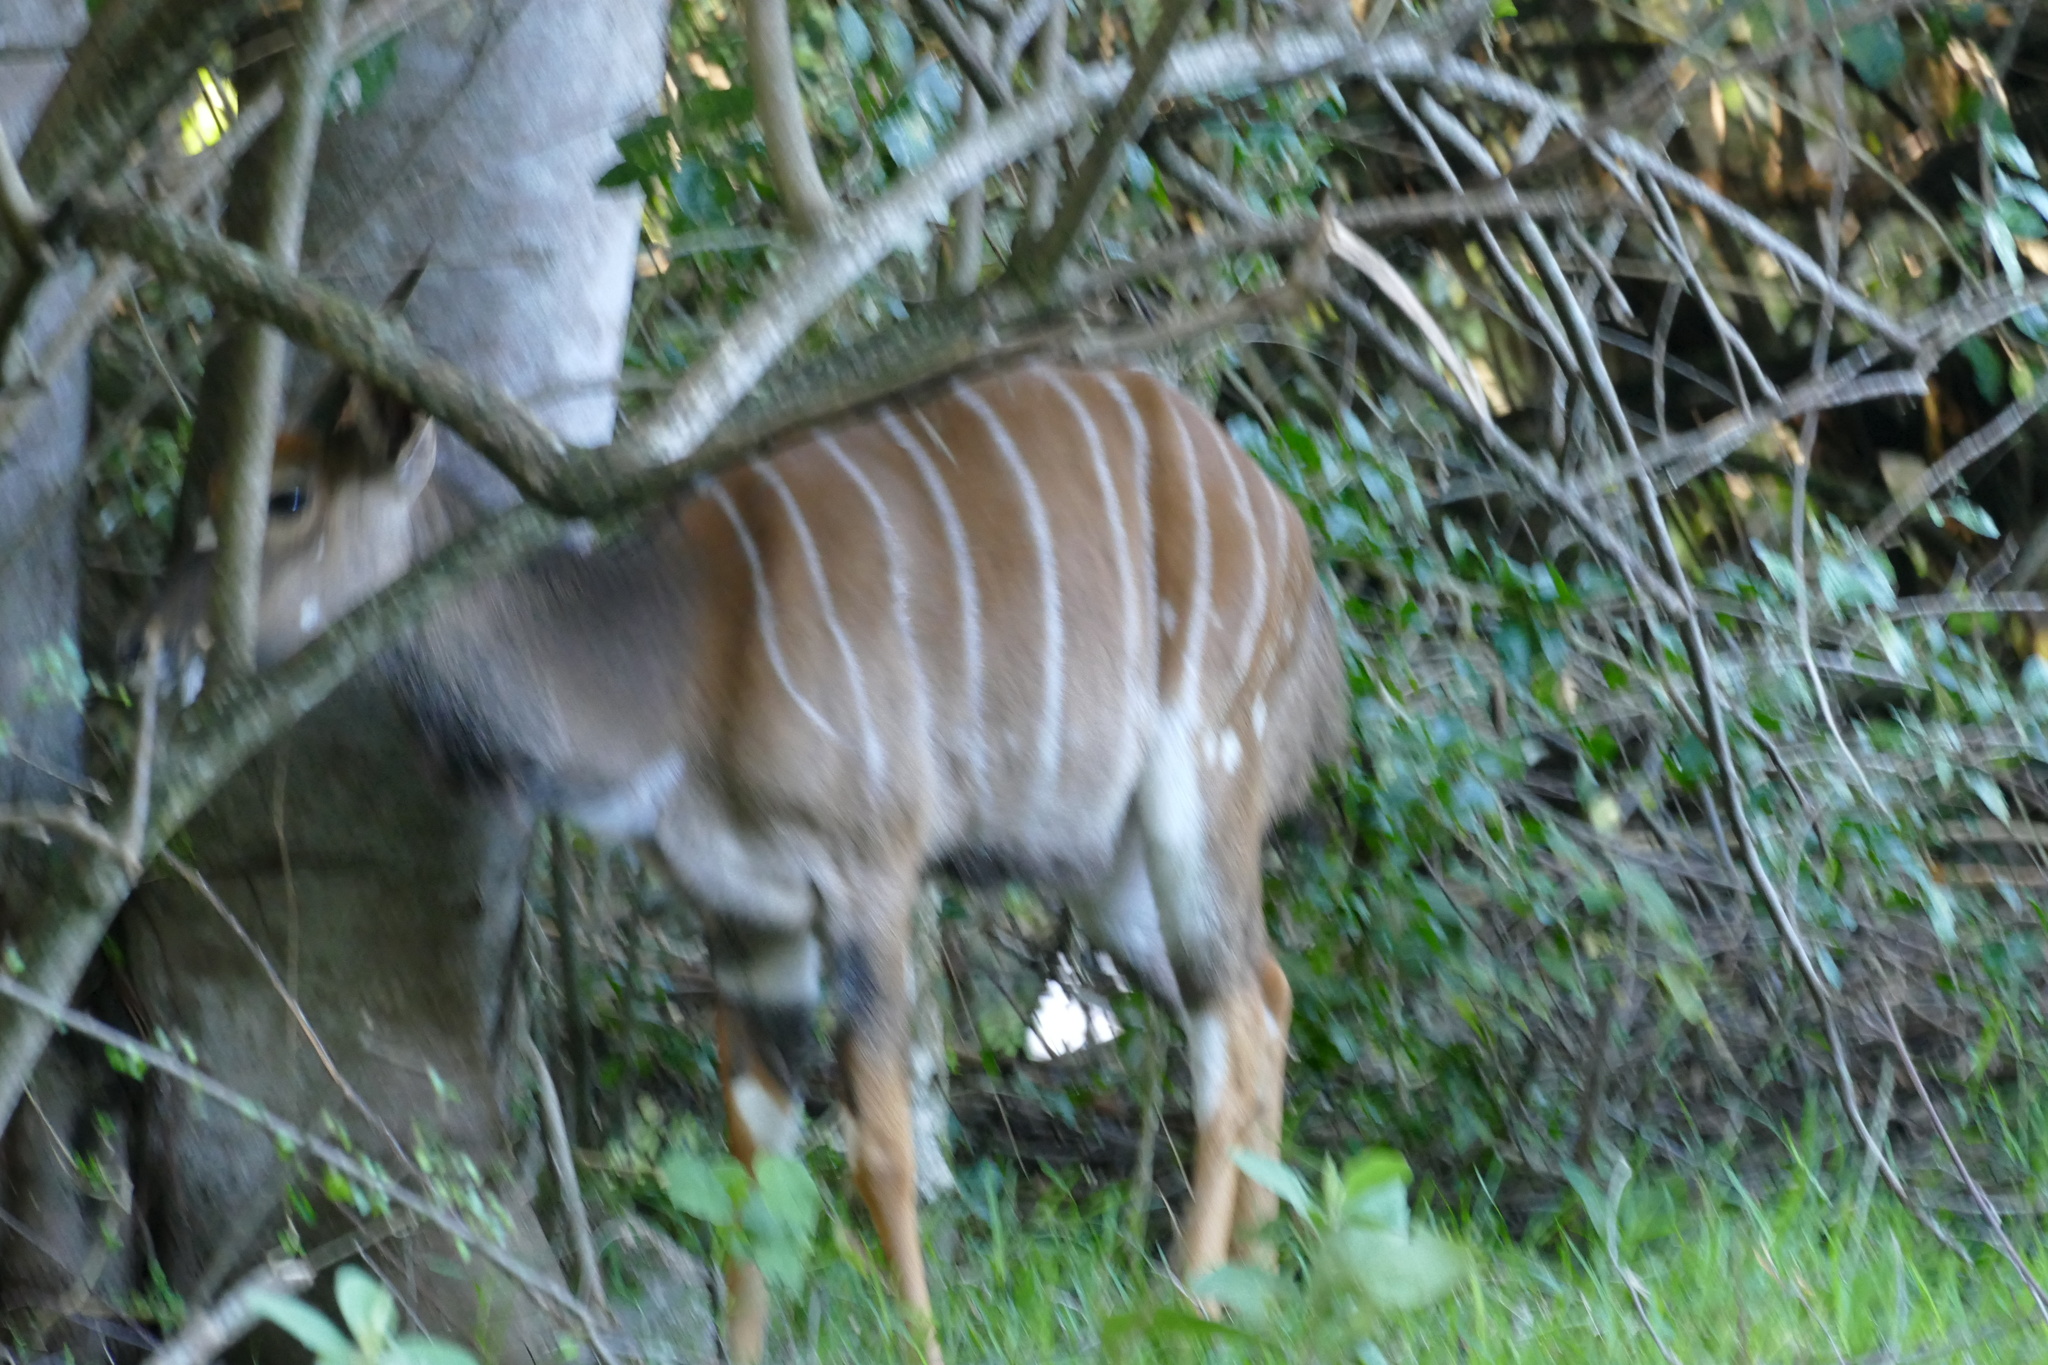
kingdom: Animalia
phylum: Chordata
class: Mammalia
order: Artiodactyla
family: Bovidae
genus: Tragelaphus
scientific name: Tragelaphus angasii
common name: Nyala
